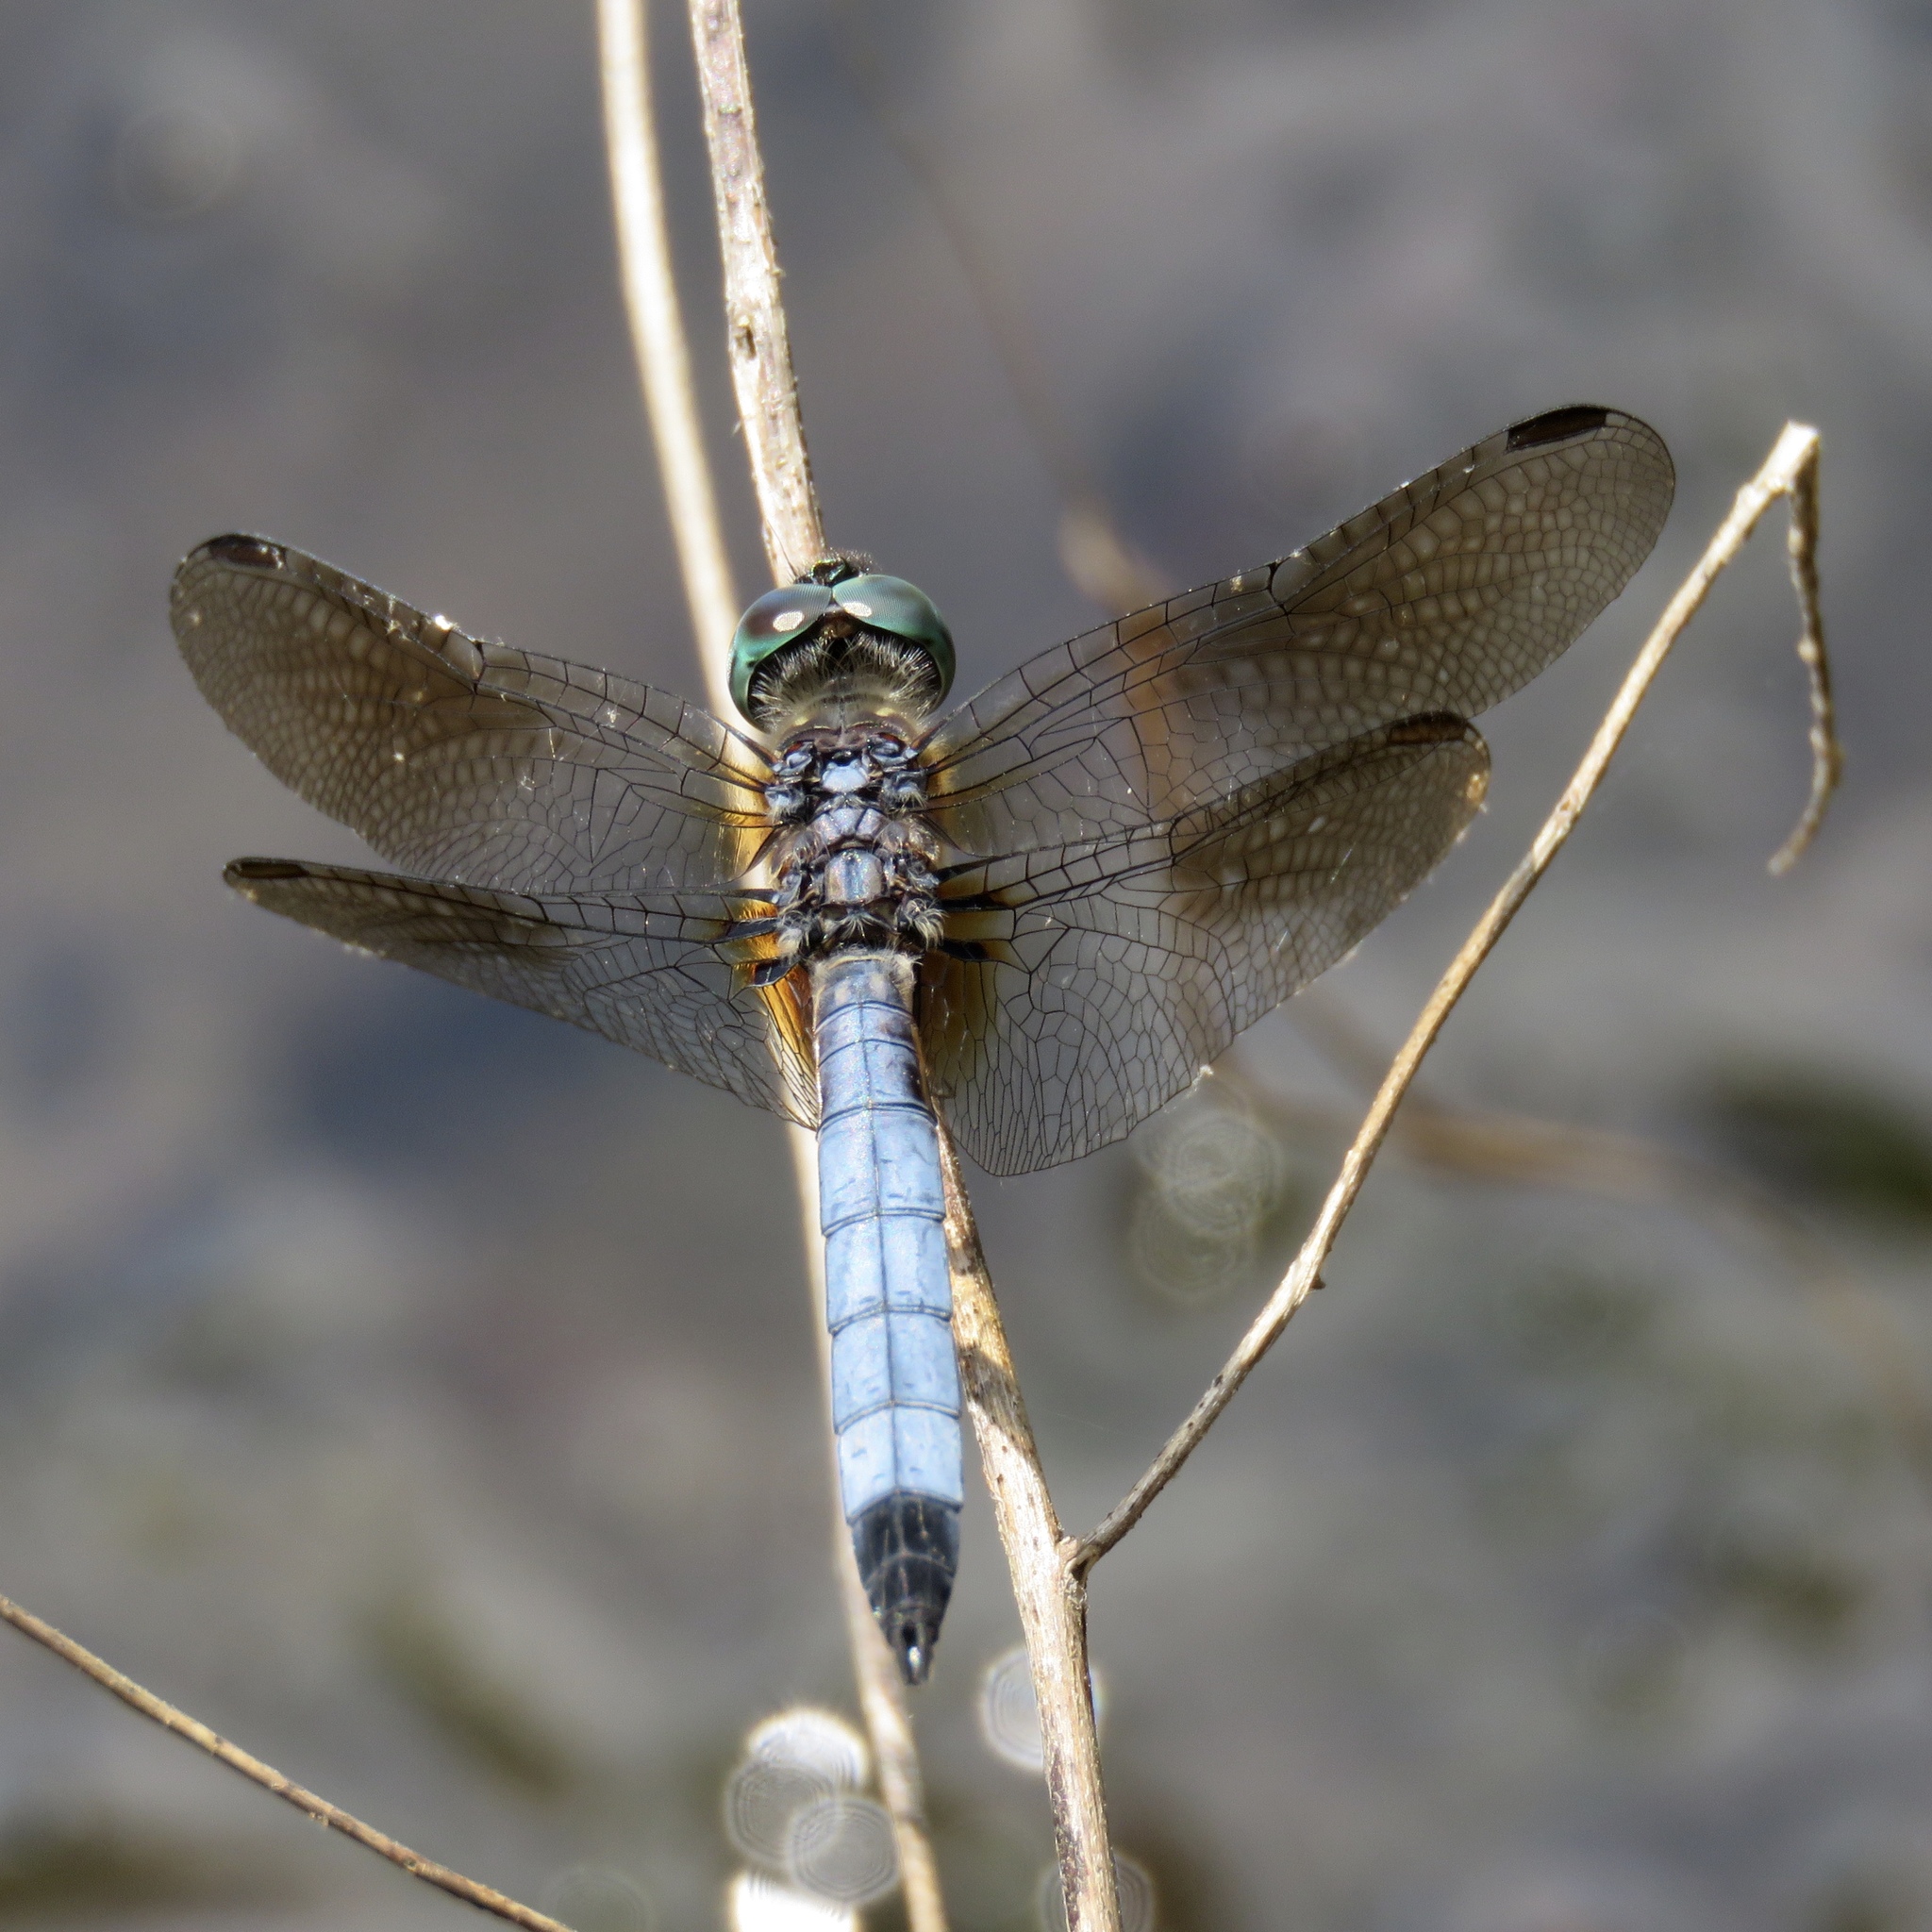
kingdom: Animalia
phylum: Arthropoda
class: Insecta
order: Odonata
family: Libellulidae
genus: Pachydiplax
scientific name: Pachydiplax longipennis
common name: Blue dasher
